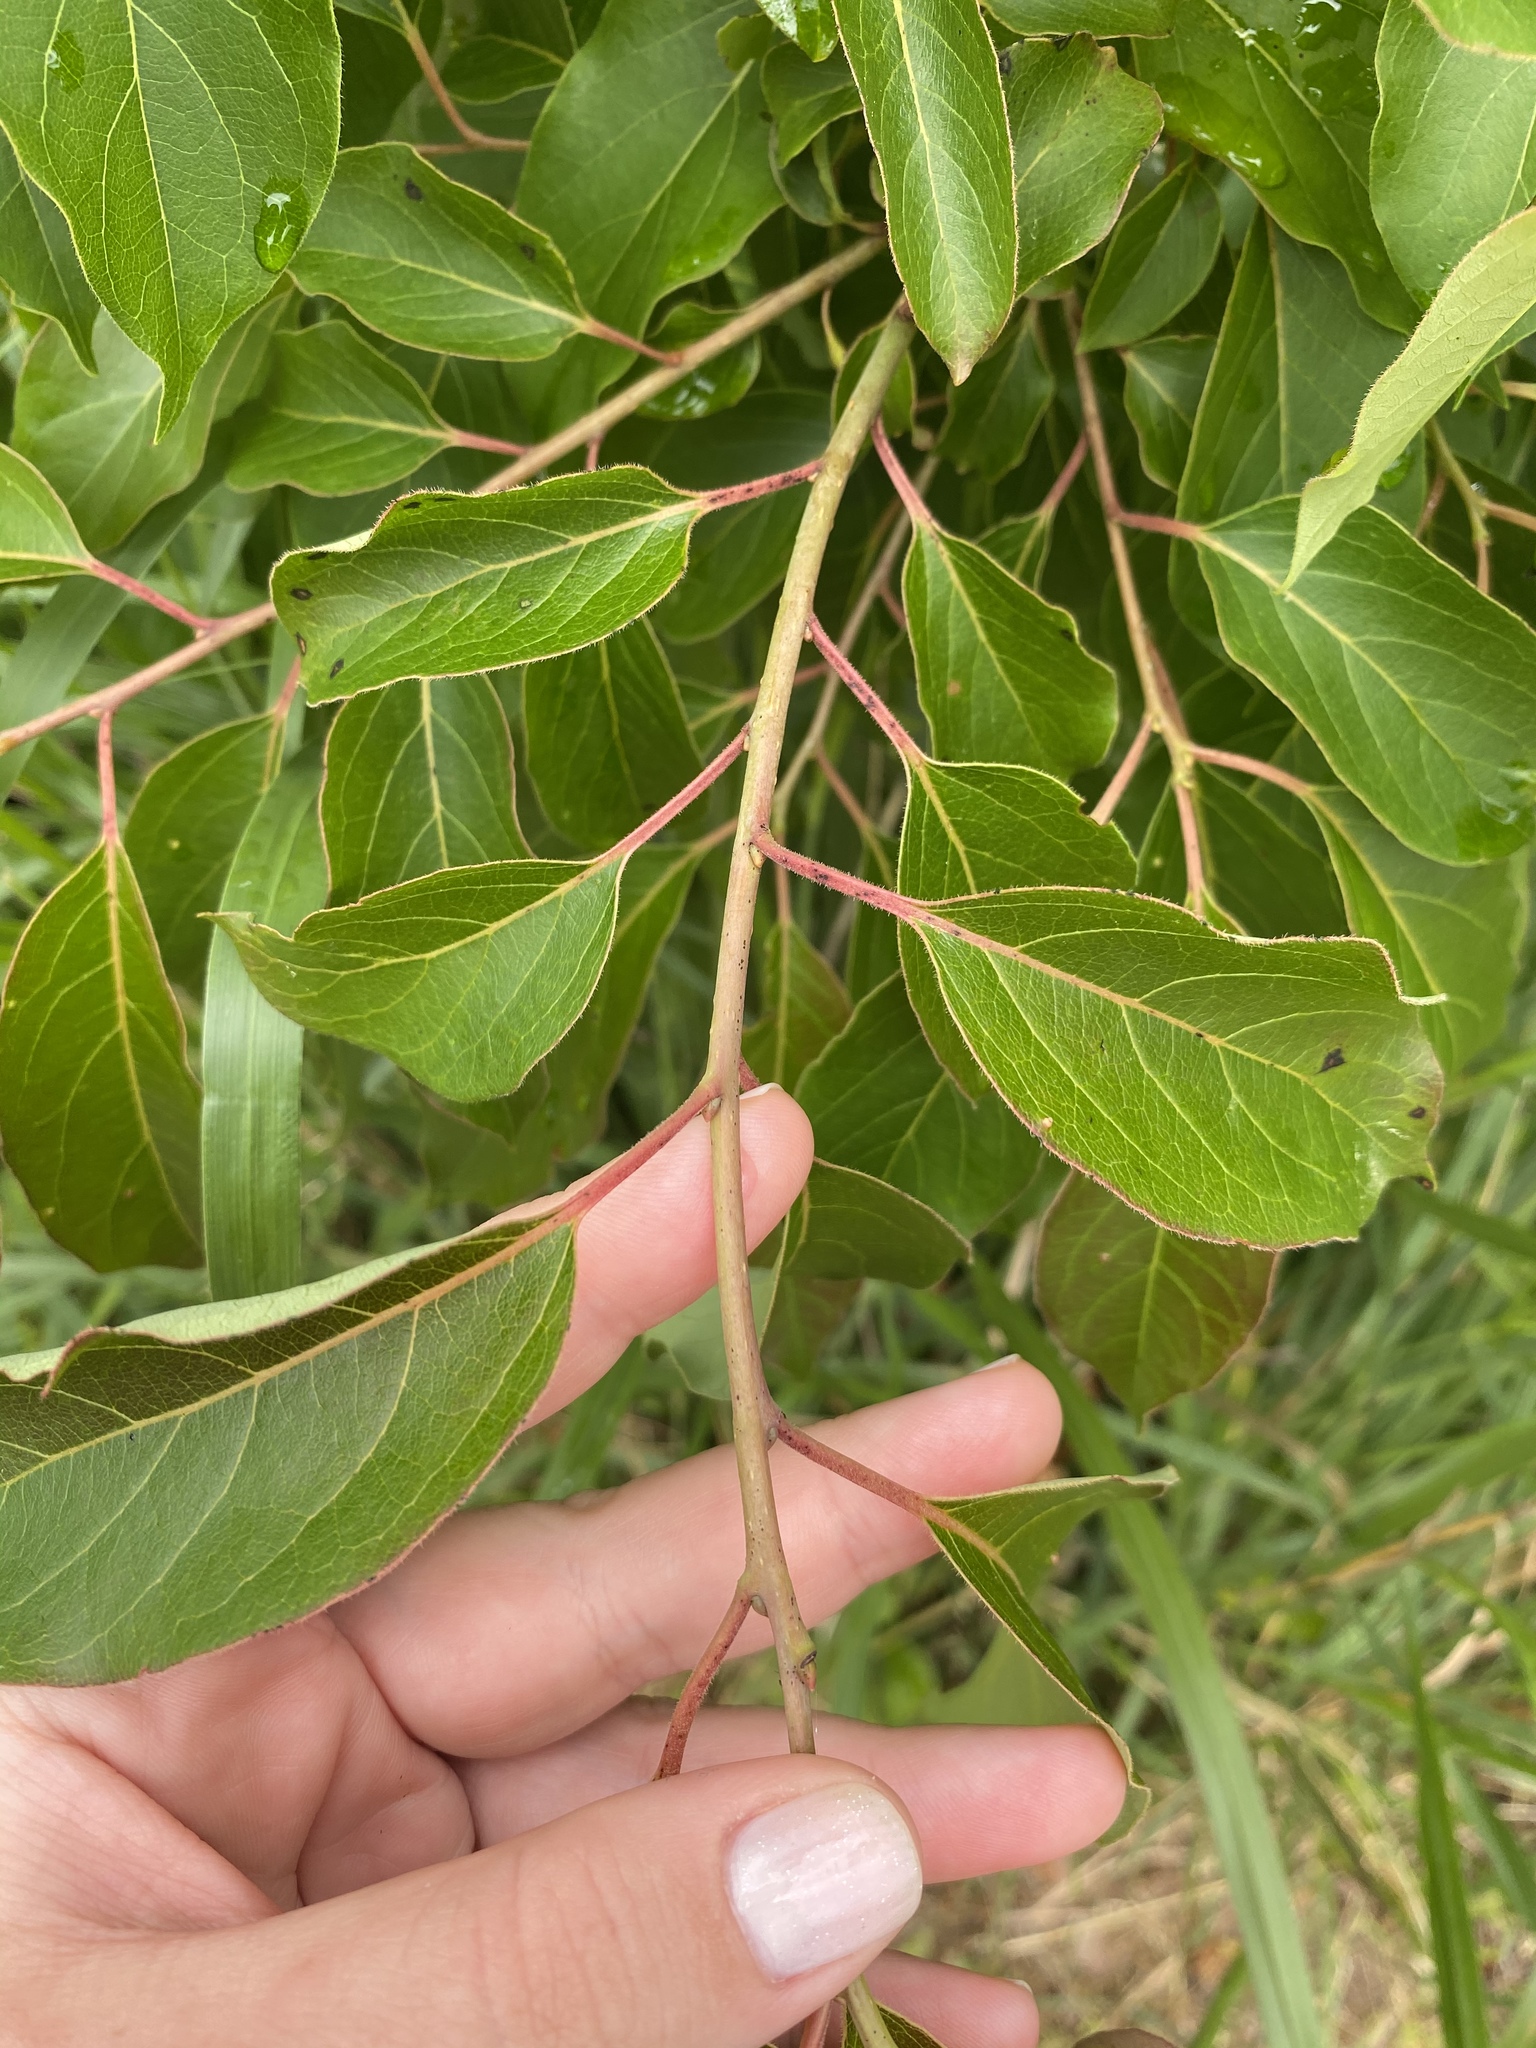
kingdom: Plantae
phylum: Tracheophyta
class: Magnoliopsida
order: Ericales
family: Ebenaceae
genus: Diospyros
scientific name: Diospyros virginiana
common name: Persimmon
